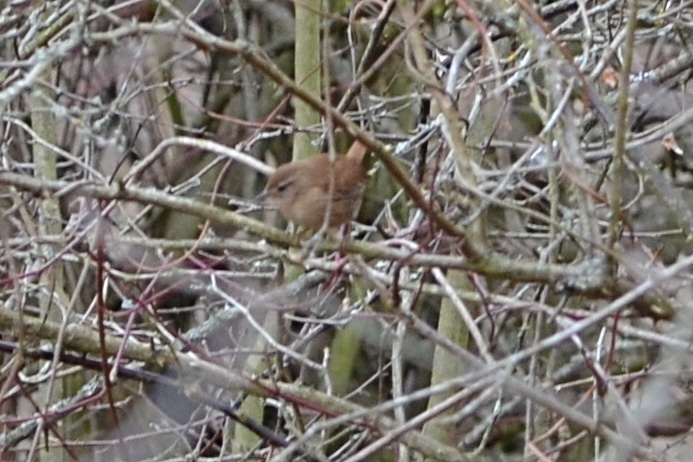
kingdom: Animalia
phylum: Chordata
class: Aves
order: Passeriformes
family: Troglodytidae
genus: Troglodytes
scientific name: Troglodytes troglodytes
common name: Eurasian wren
